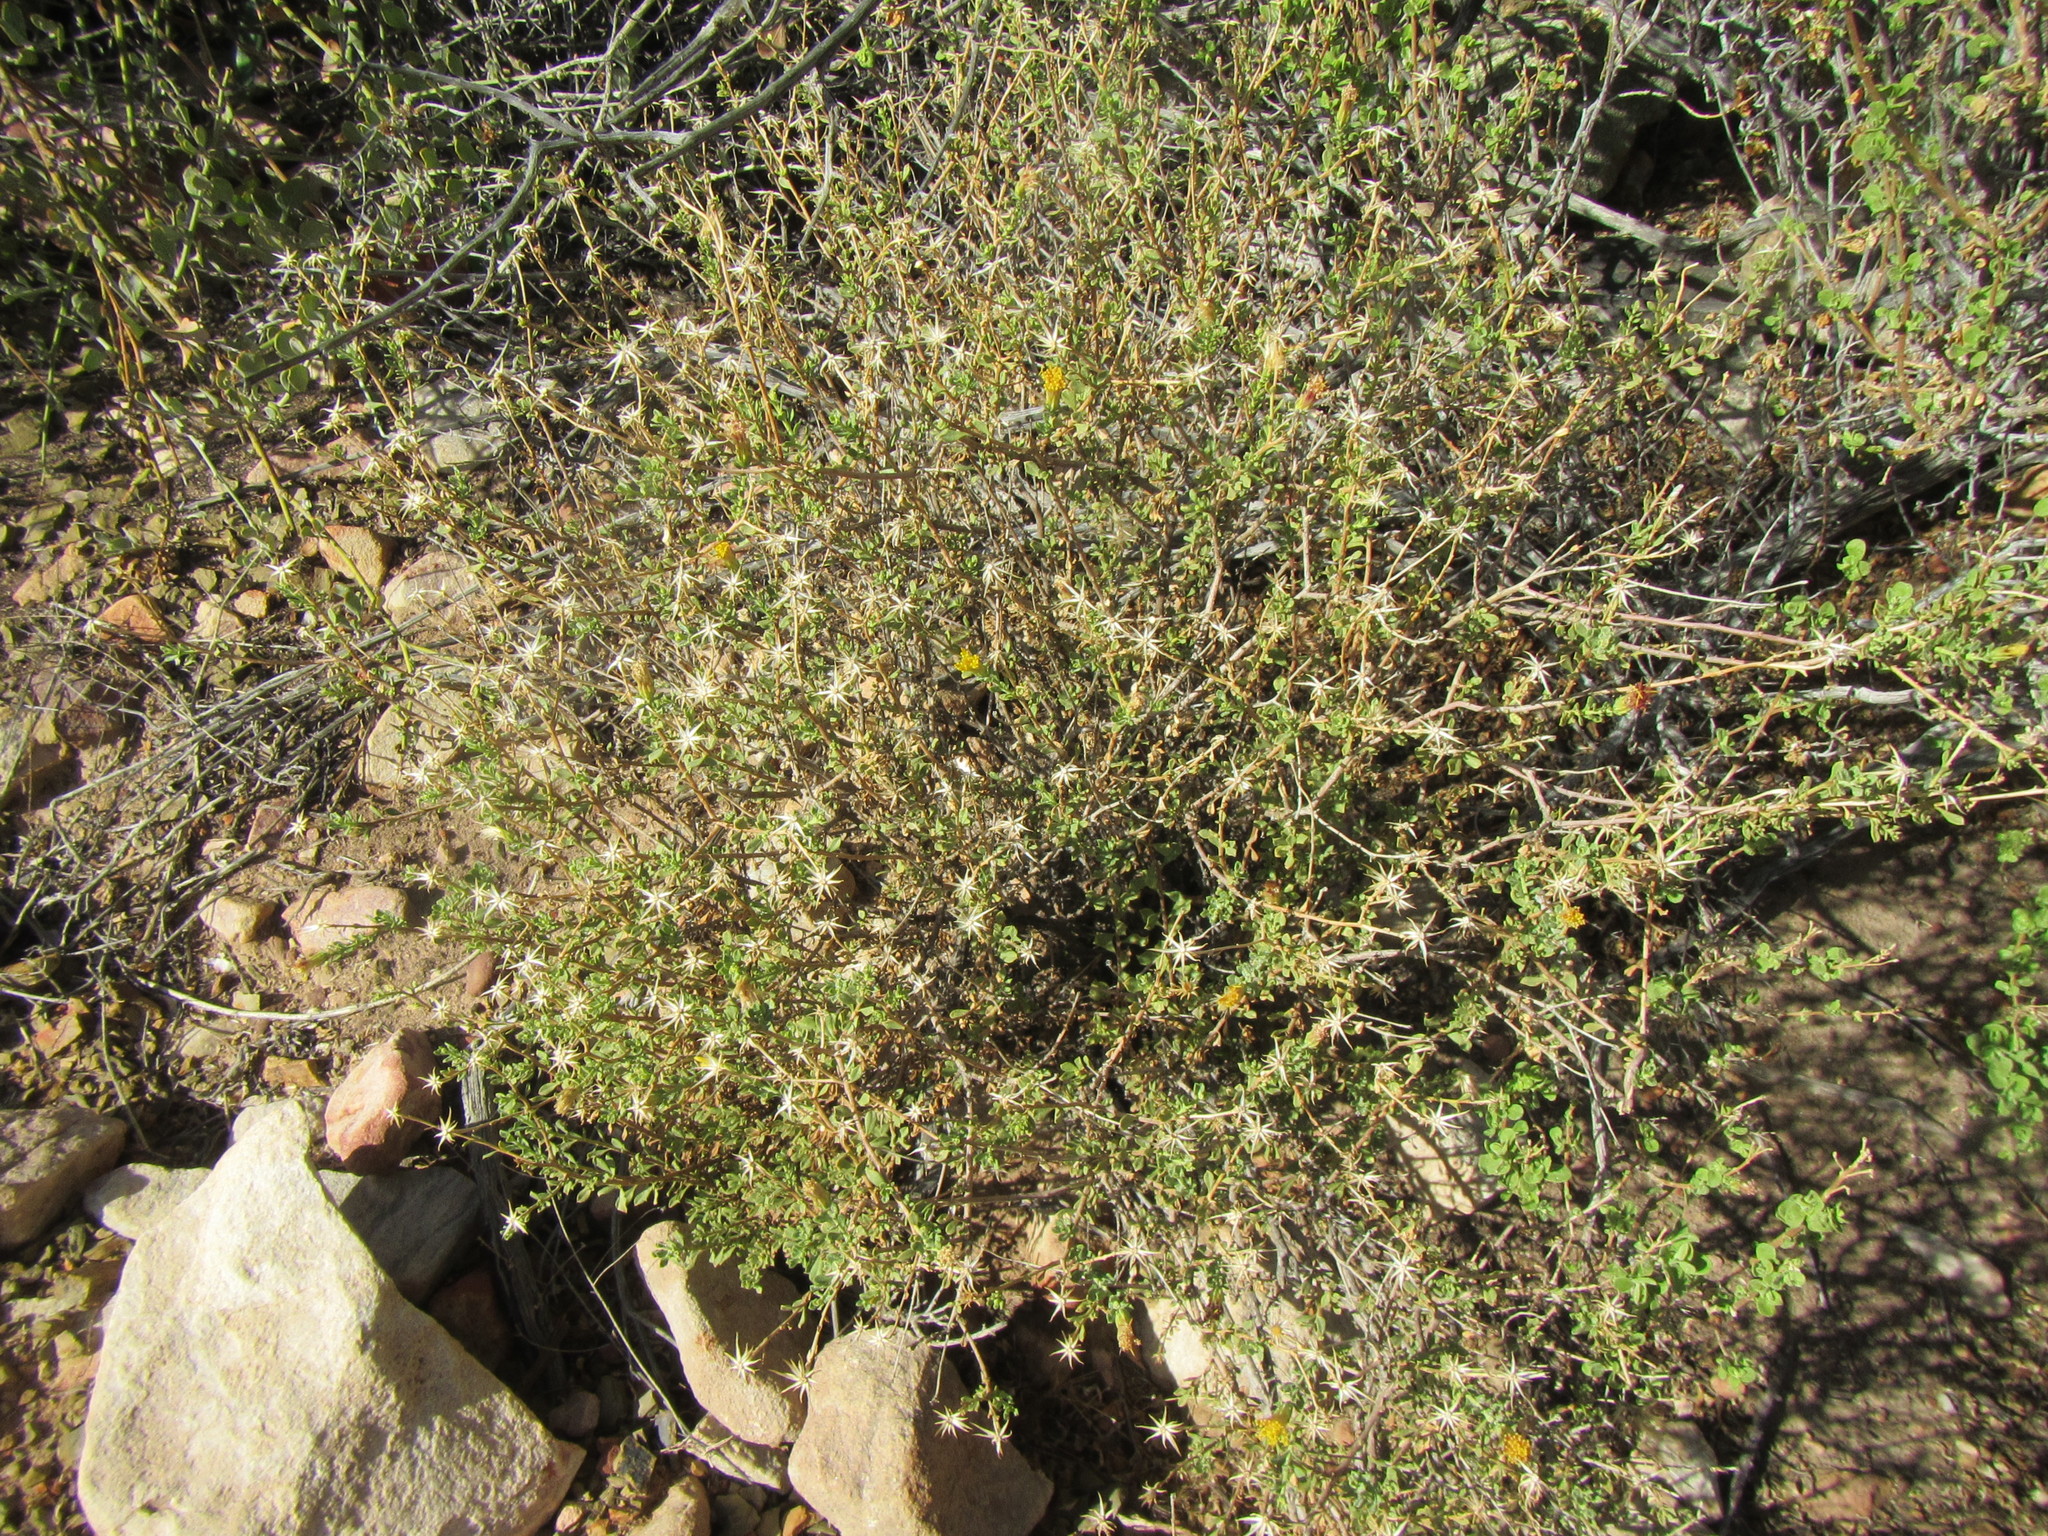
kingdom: Plantae
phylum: Tracheophyta
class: Magnoliopsida
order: Asterales
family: Asteraceae
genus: Pegolettia
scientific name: Pegolettia retrofracta
